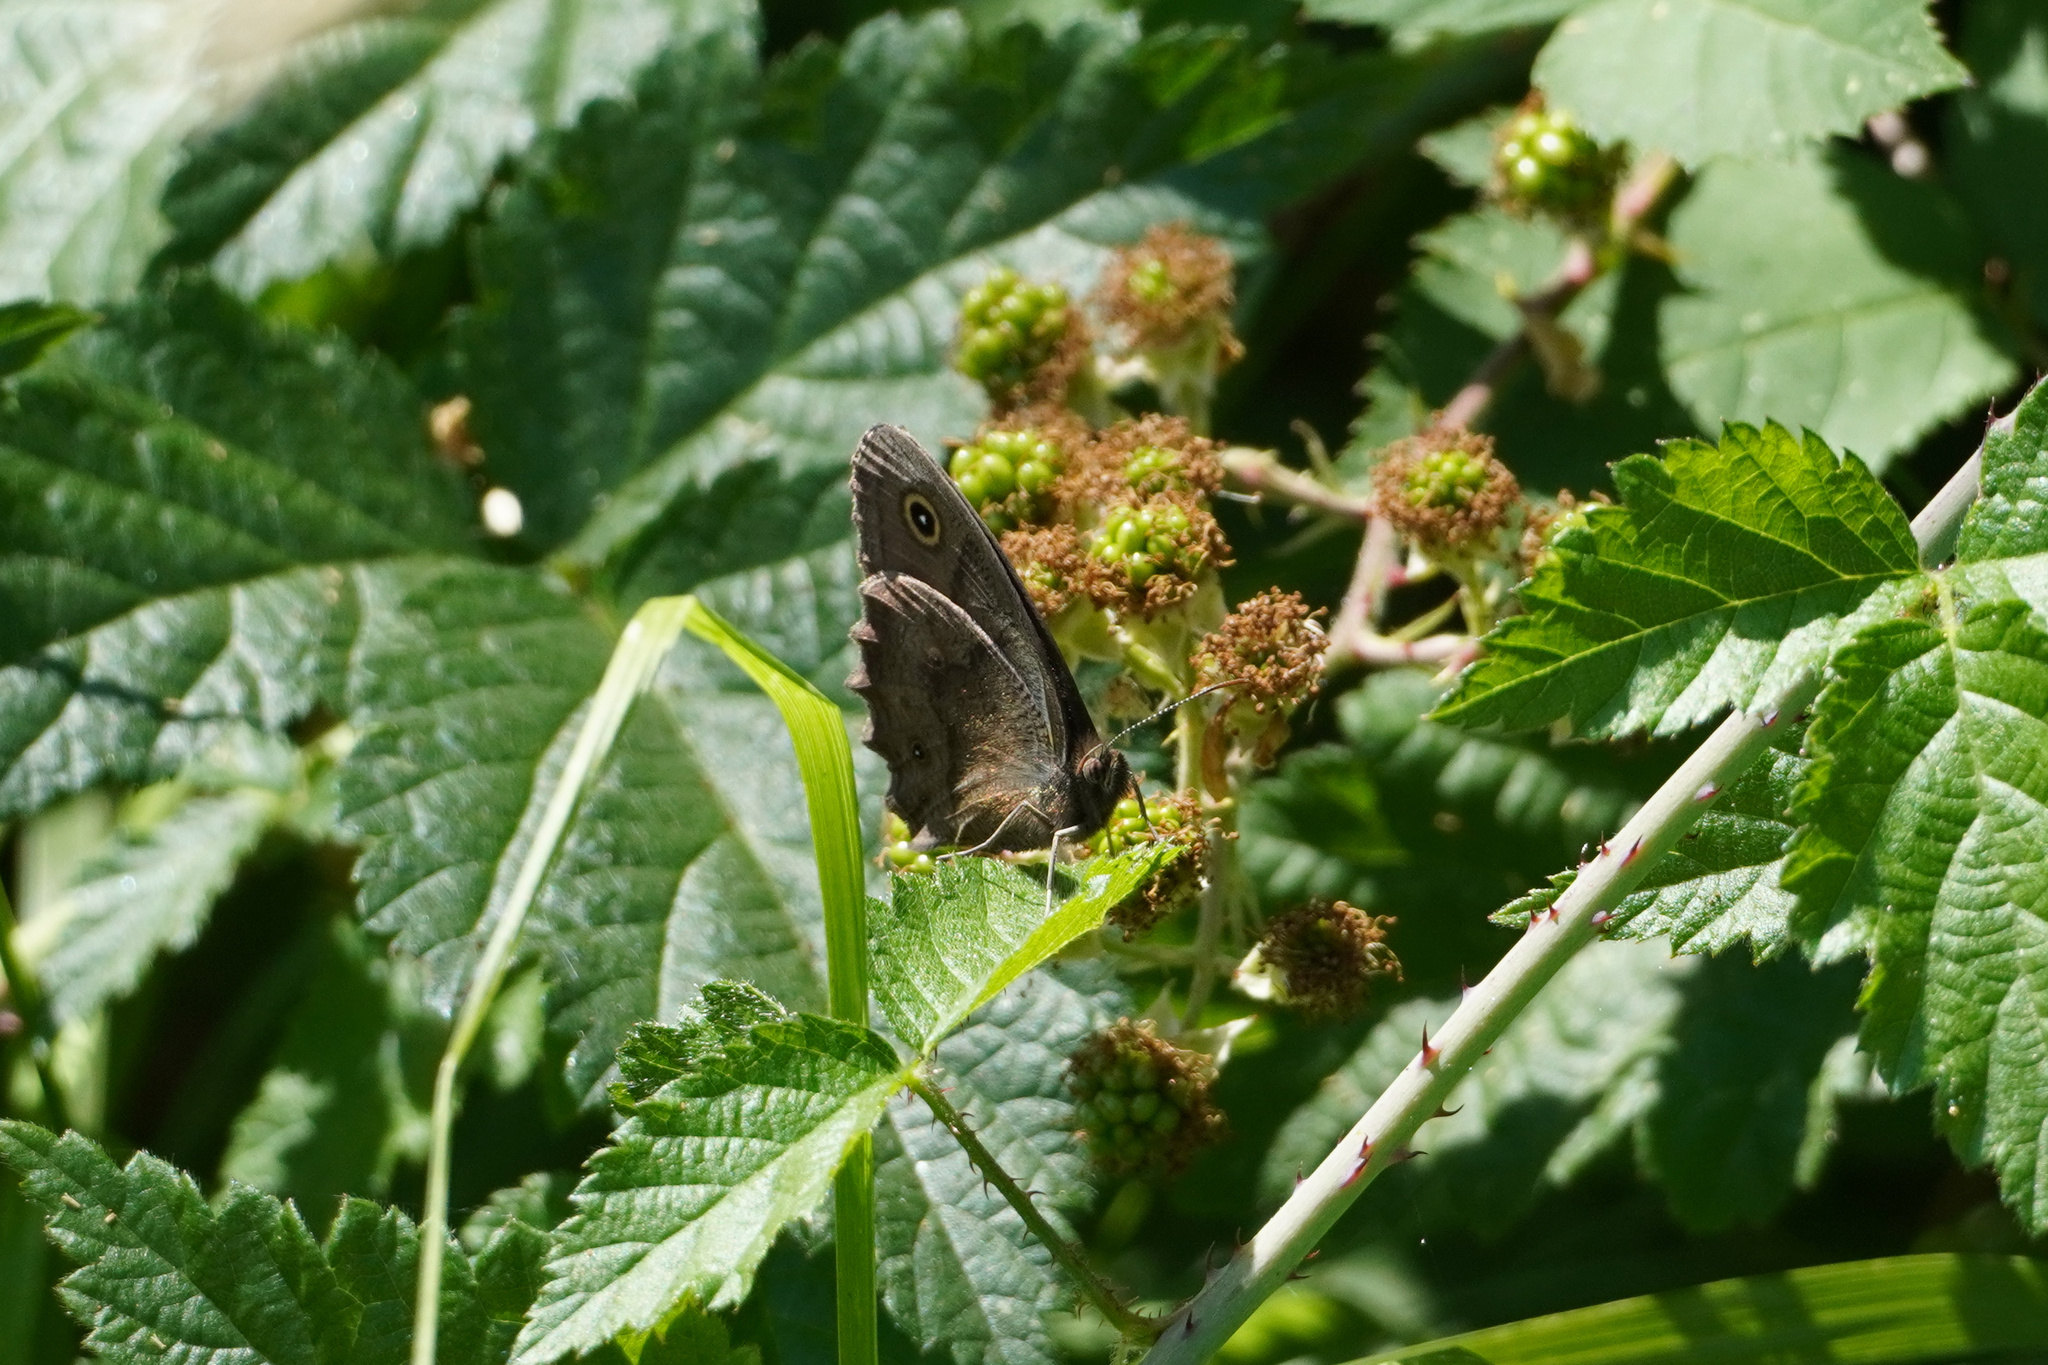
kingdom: Animalia
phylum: Arthropoda
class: Insecta
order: Lepidoptera
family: Nymphalidae
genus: Cercyonis
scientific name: Cercyonis pegala
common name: Common wood-nymph
